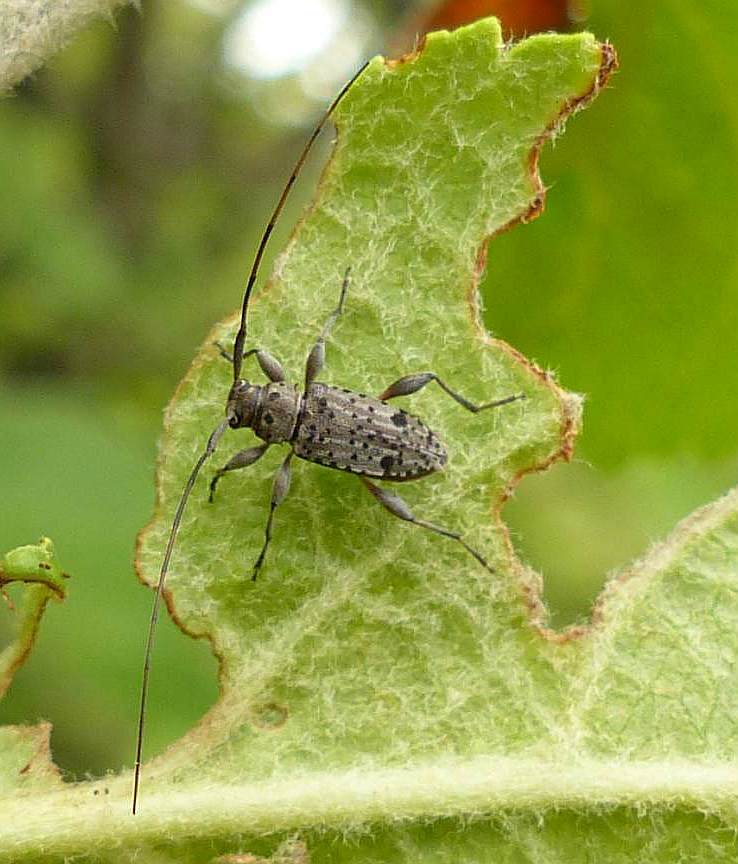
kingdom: Animalia
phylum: Arthropoda
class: Insecta
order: Coleoptera
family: Cerambycidae
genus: Hyperplatys
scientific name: Hyperplatys maculata
